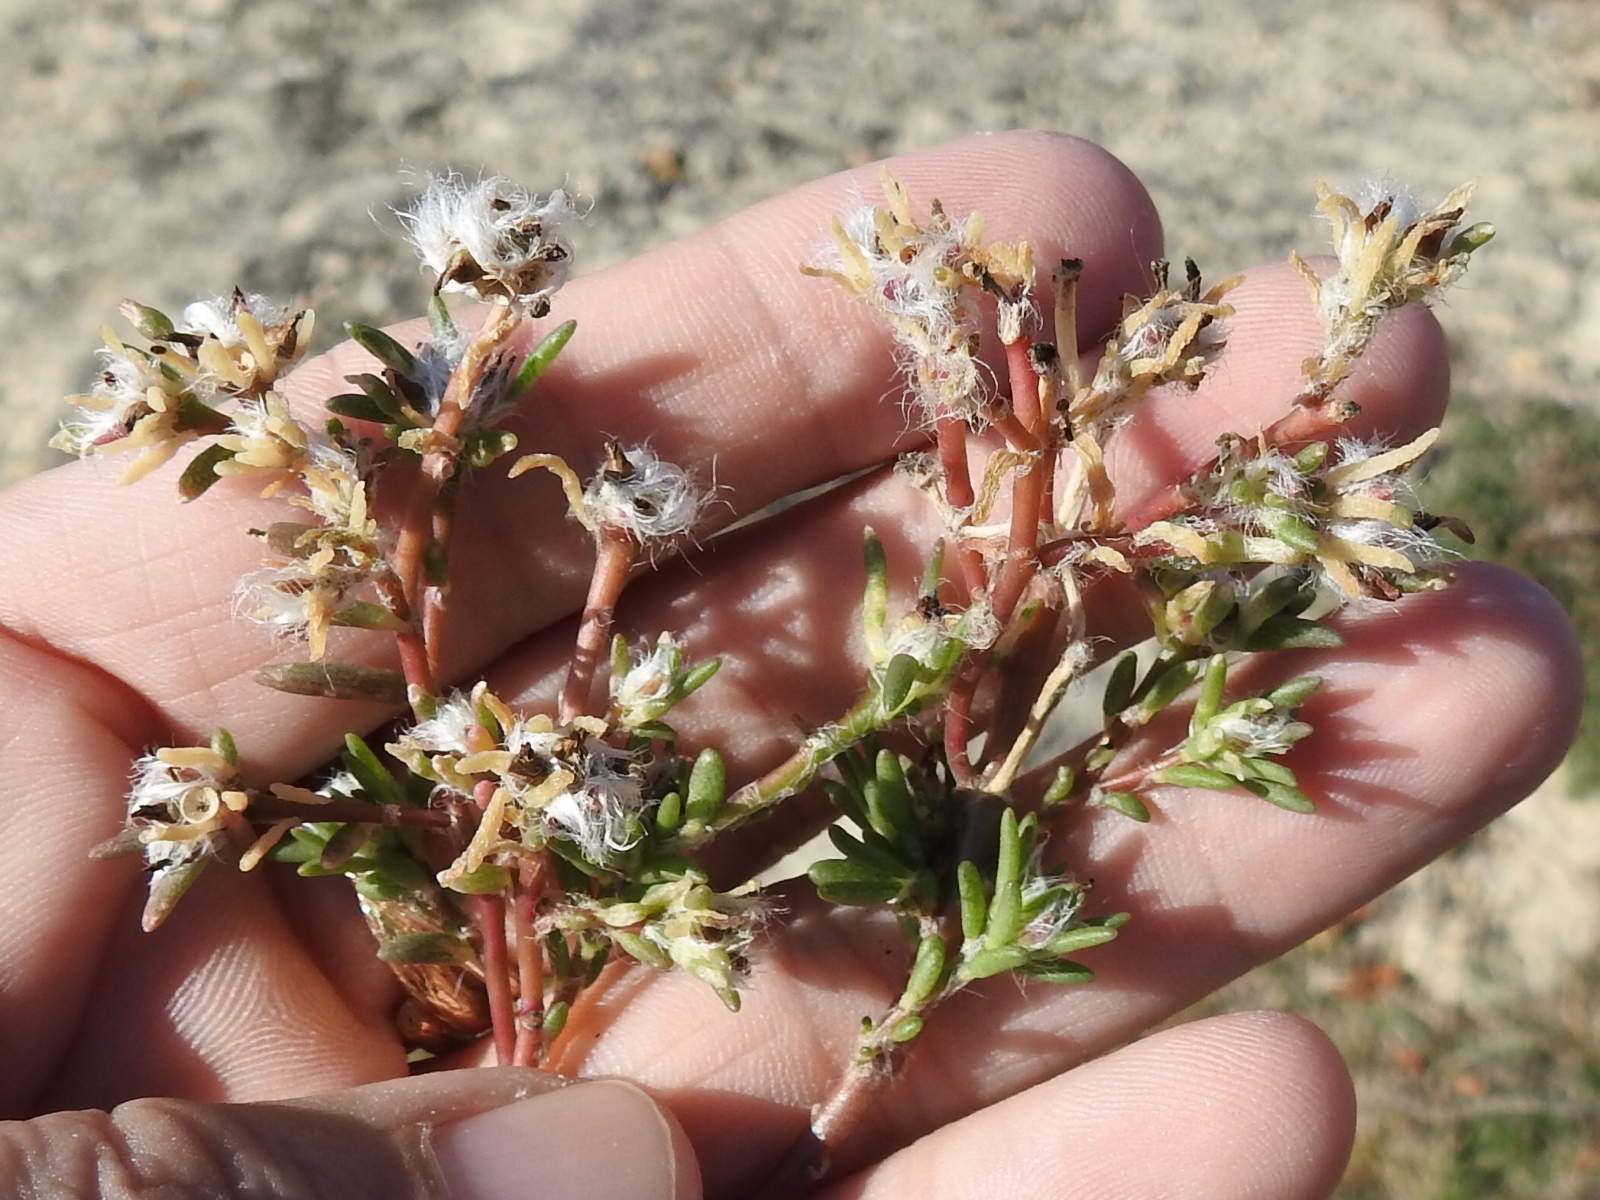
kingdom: Plantae
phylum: Tracheophyta
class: Magnoliopsida
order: Caryophyllales
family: Portulacaceae
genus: Portulaca
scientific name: Portulaca pilosa
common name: Kiss me quick
